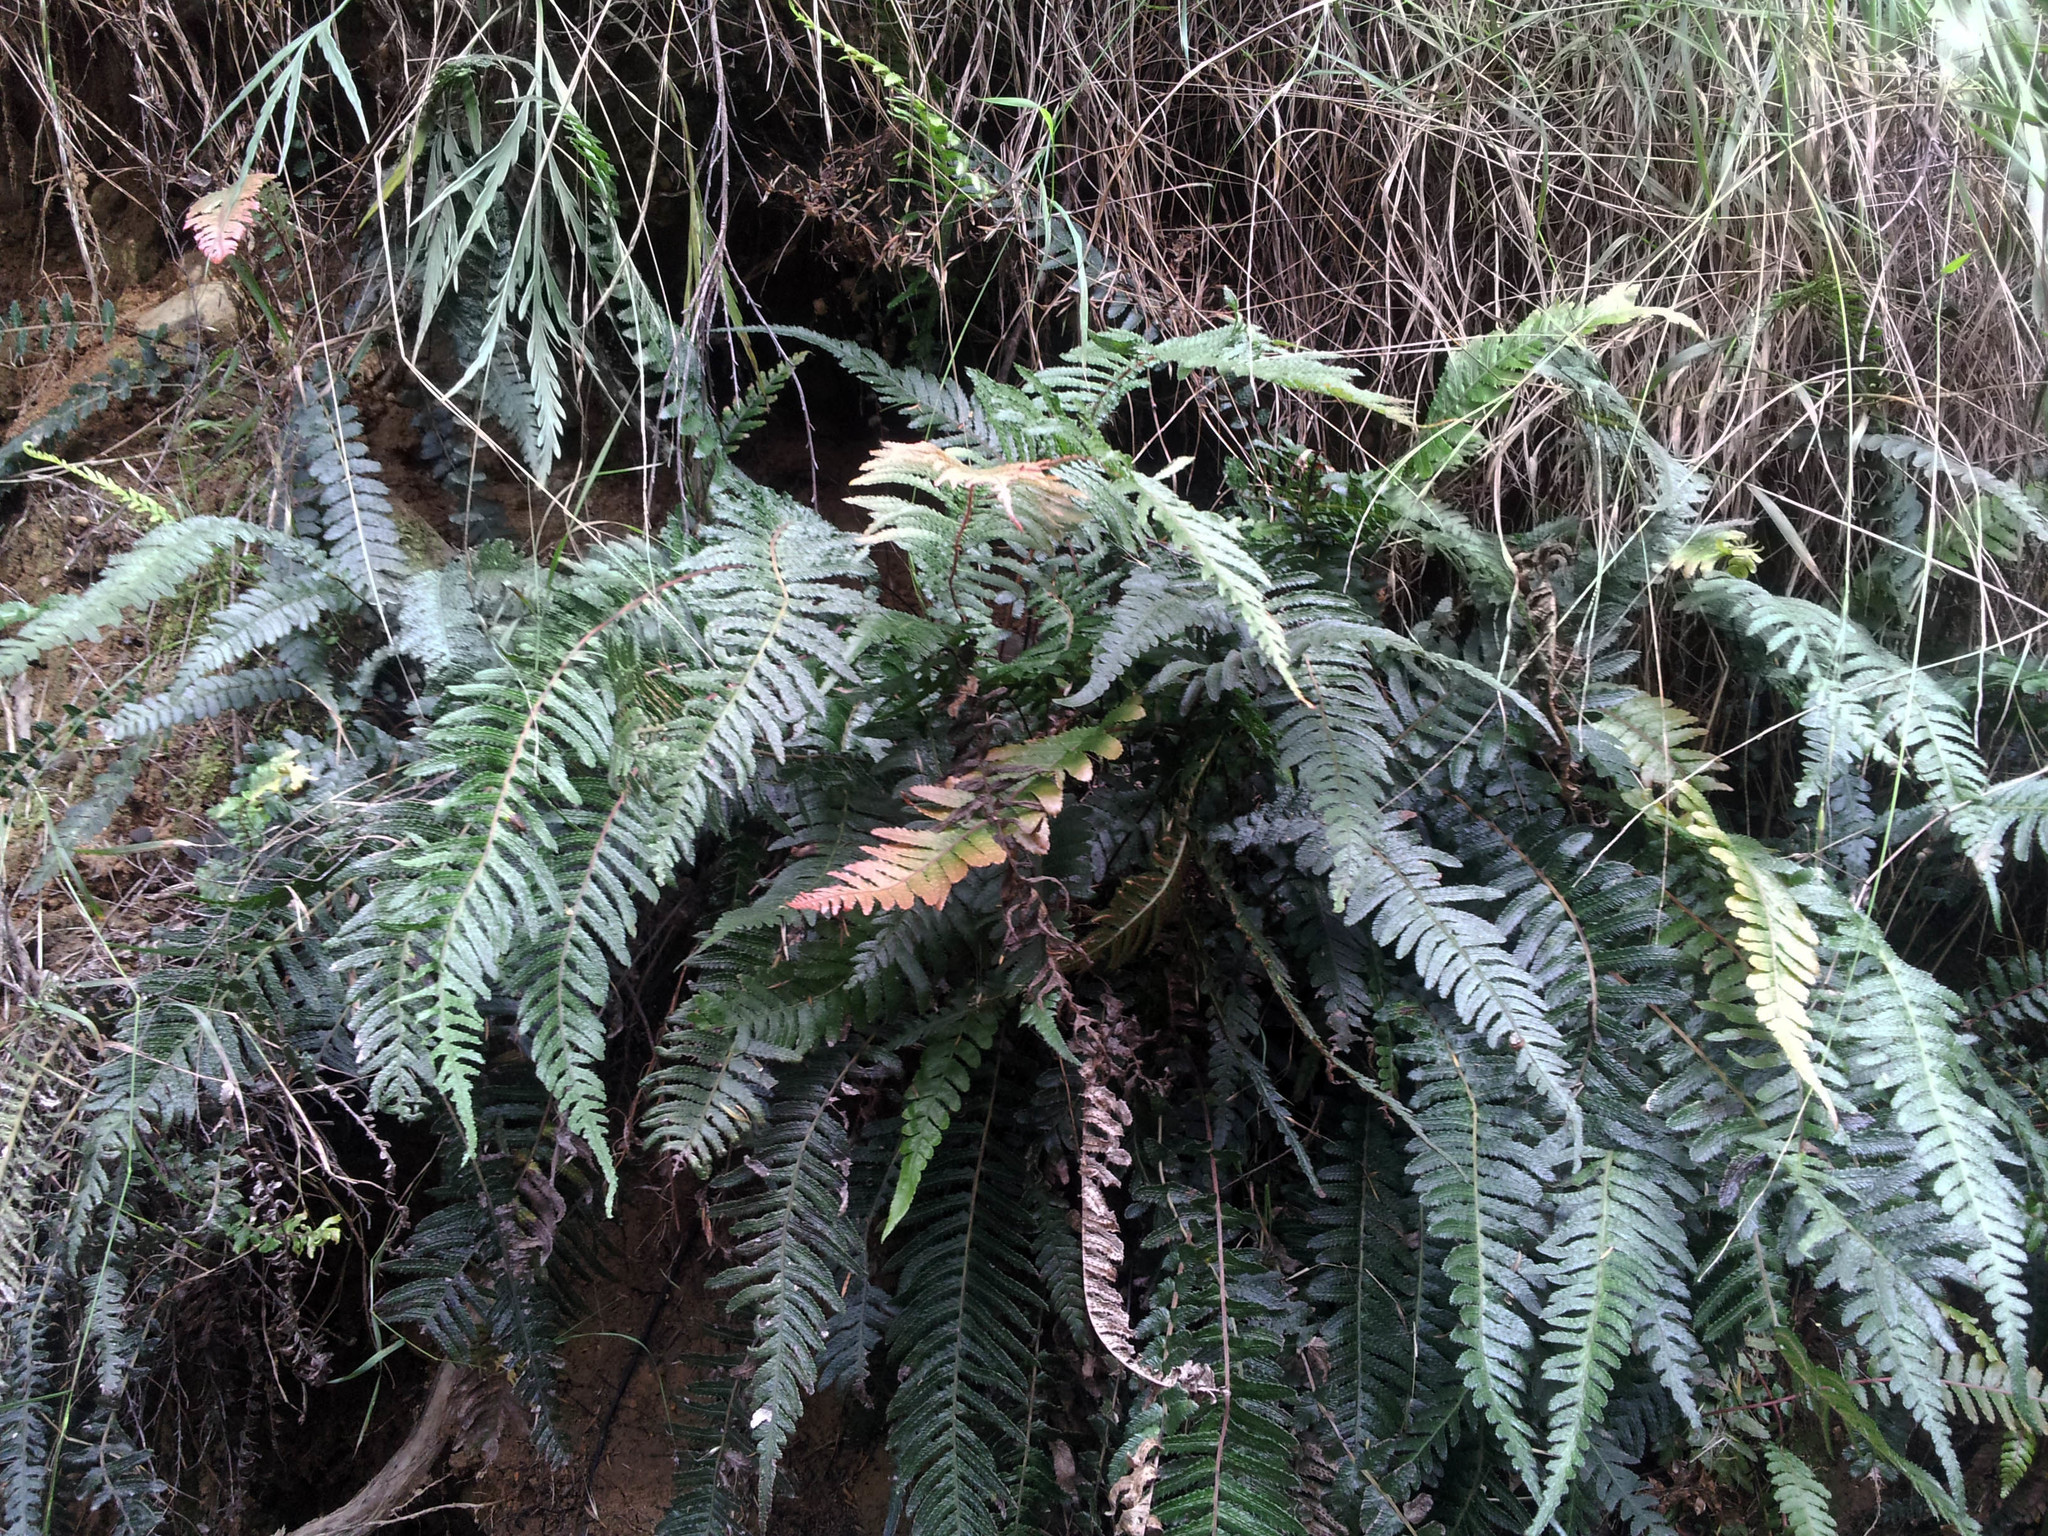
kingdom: Plantae
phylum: Tracheophyta
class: Polypodiopsida
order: Polypodiales
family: Blechnaceae
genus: Doodia
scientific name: Doodia australis
